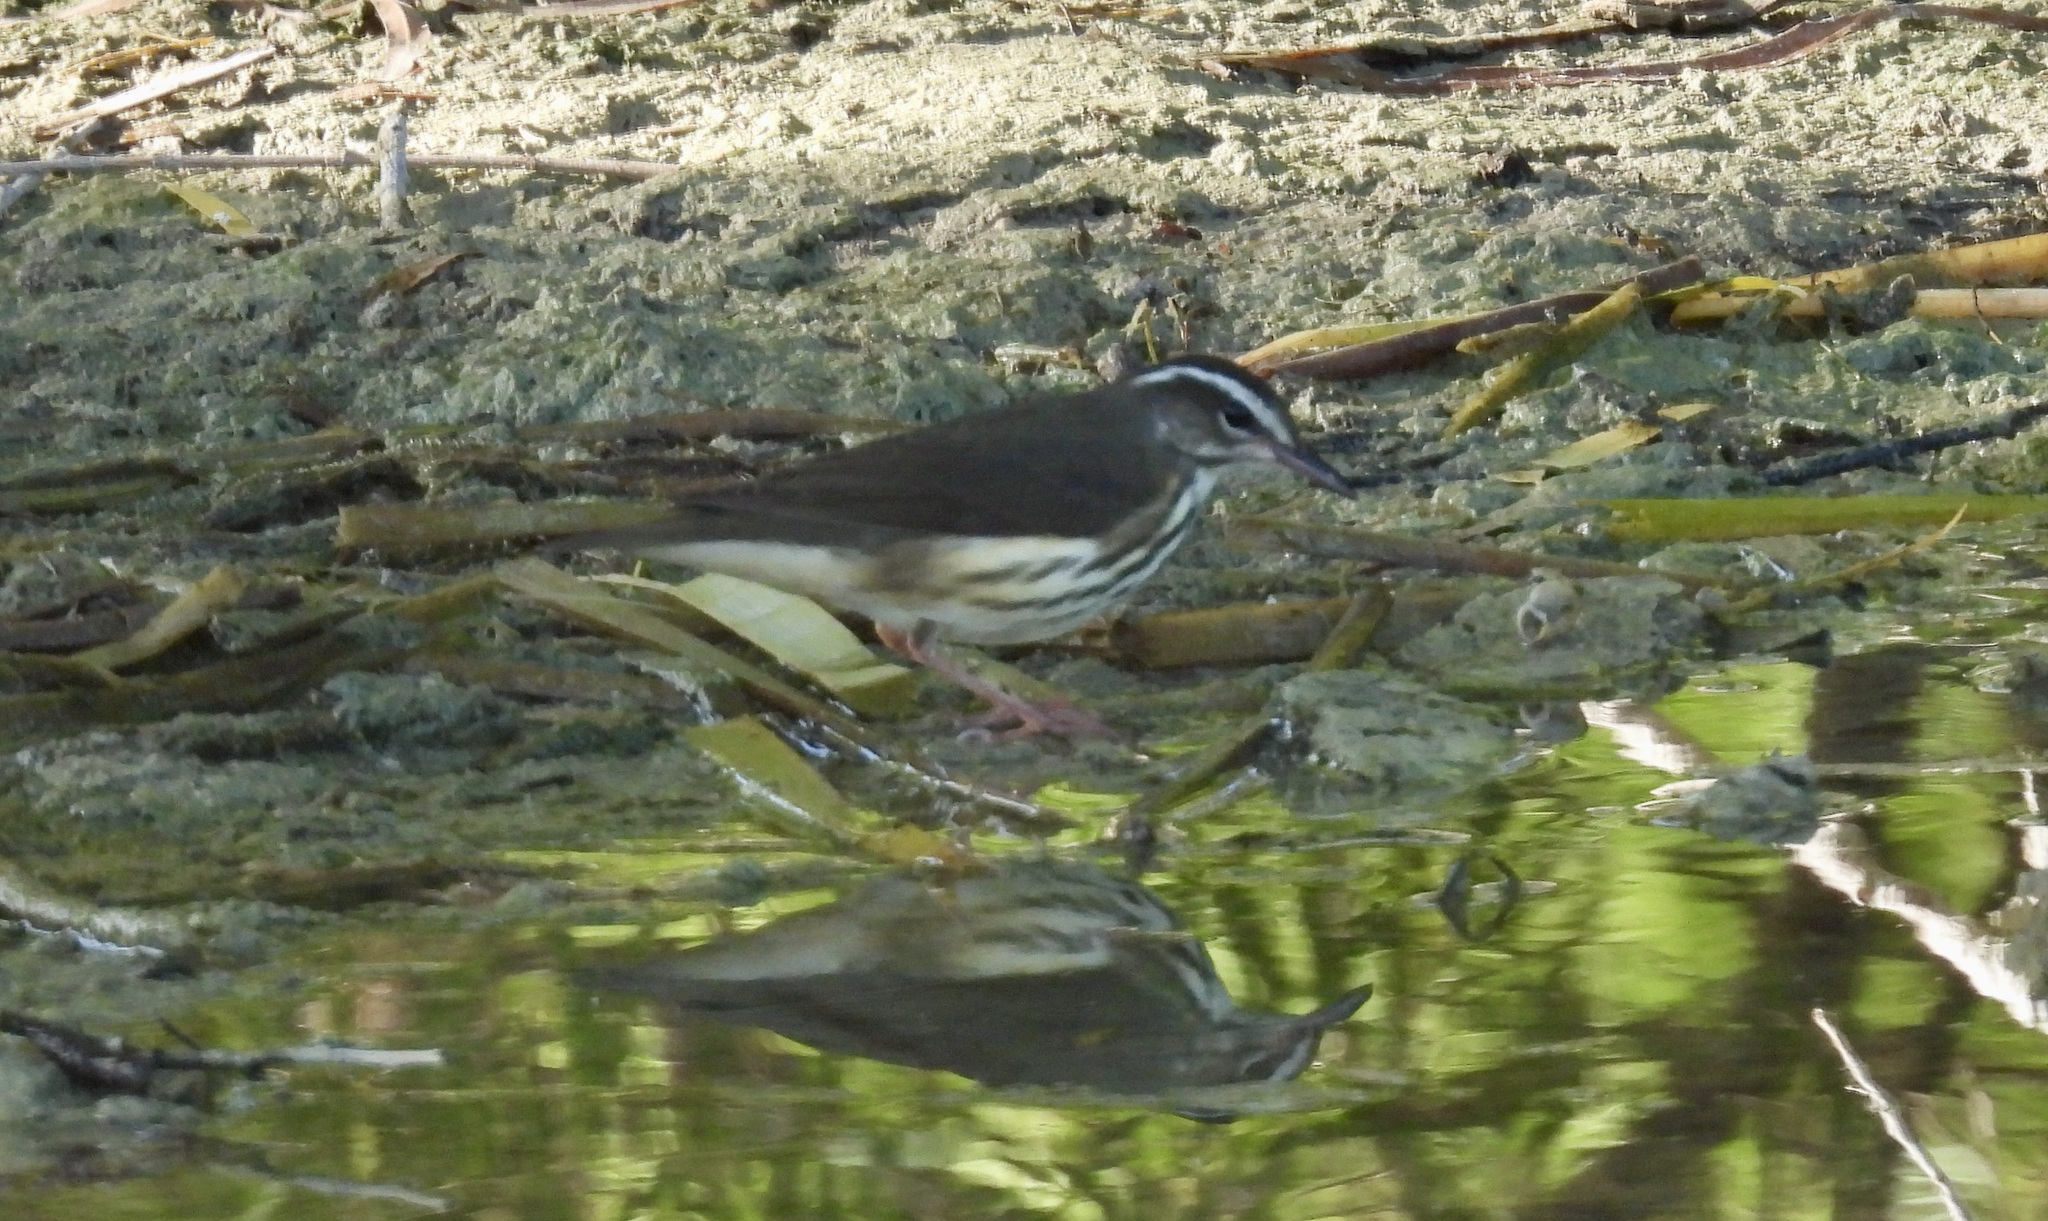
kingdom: Animalia
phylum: Chordata
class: Aves
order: Passeriformes
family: Parulidae
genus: Parkesia
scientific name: Parkesia motacilla
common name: Louisiana waterthrush
